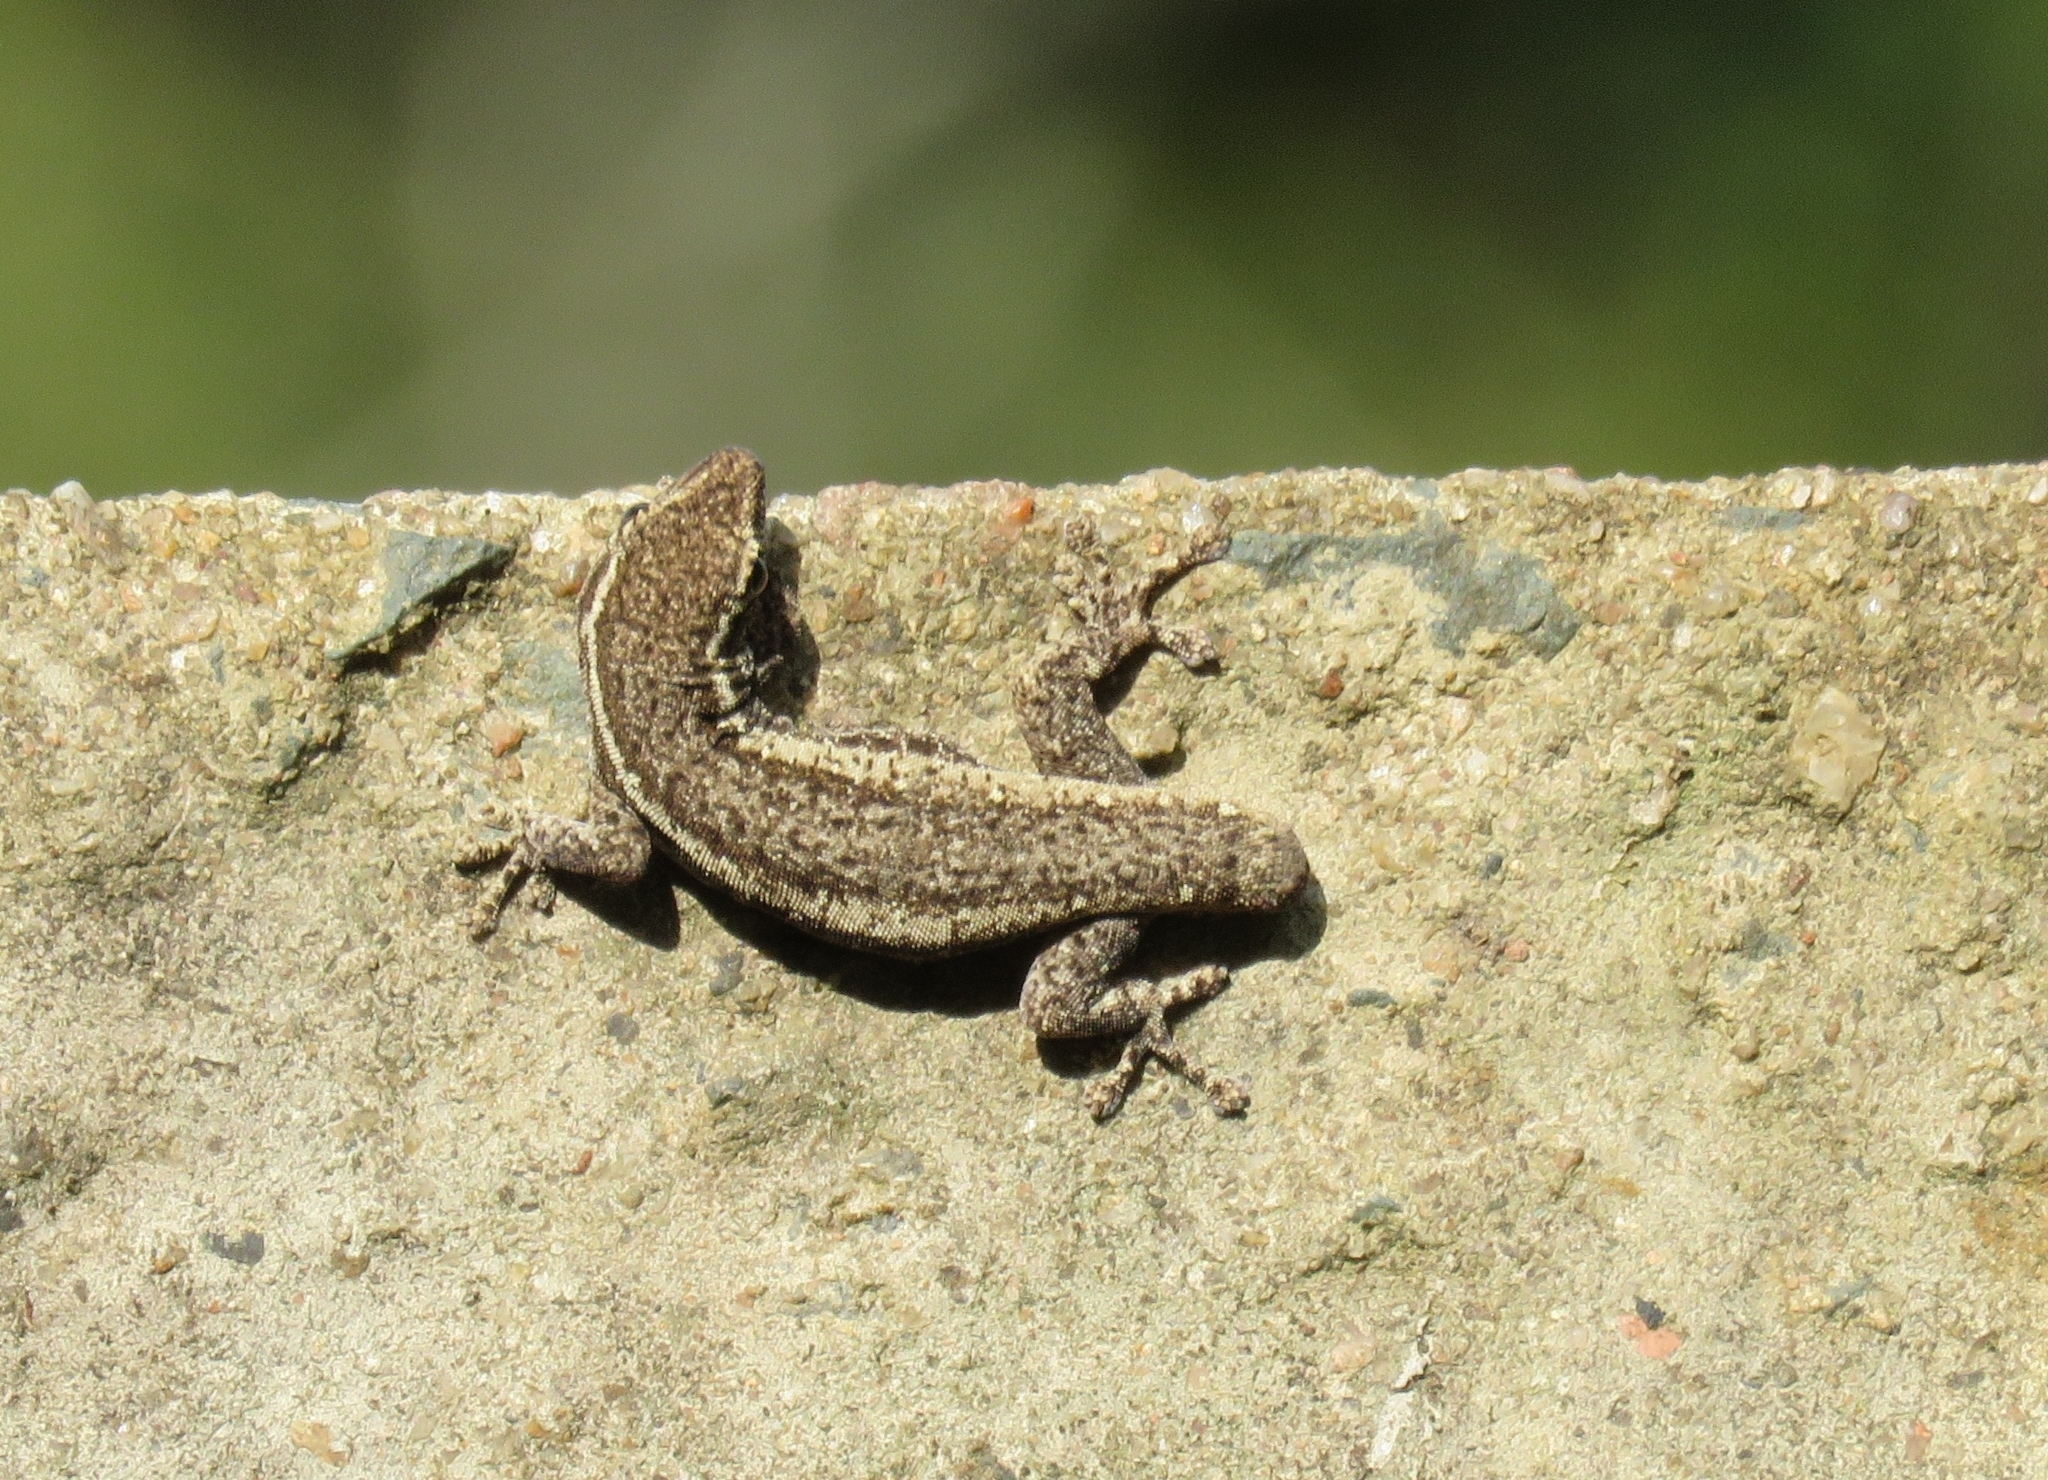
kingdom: Animalia
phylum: Chordata
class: Squamata
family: Gekkonidae
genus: Lygodactylus
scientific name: Lygodactylus capensis
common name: Cape dwarf gecko
